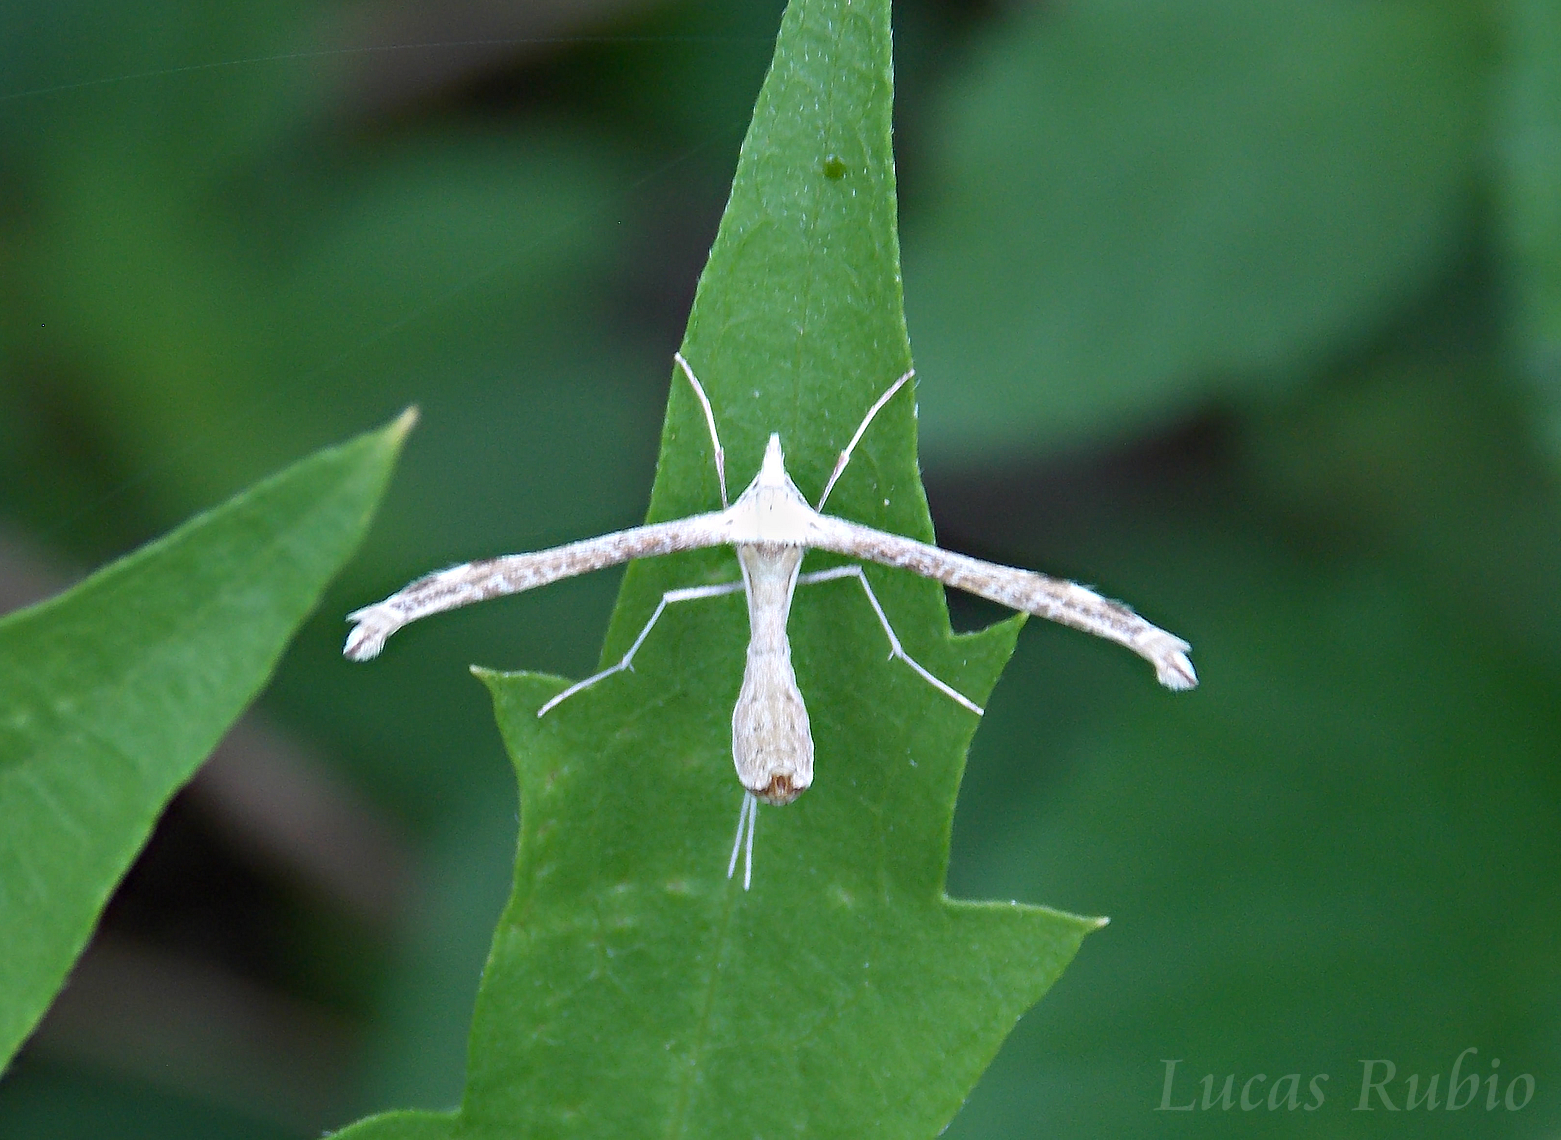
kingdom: Animalia
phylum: Arthropoda
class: Insecta
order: Lepidoptera
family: Pterophoridae
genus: Uroloba
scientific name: Uroloba calycospila
